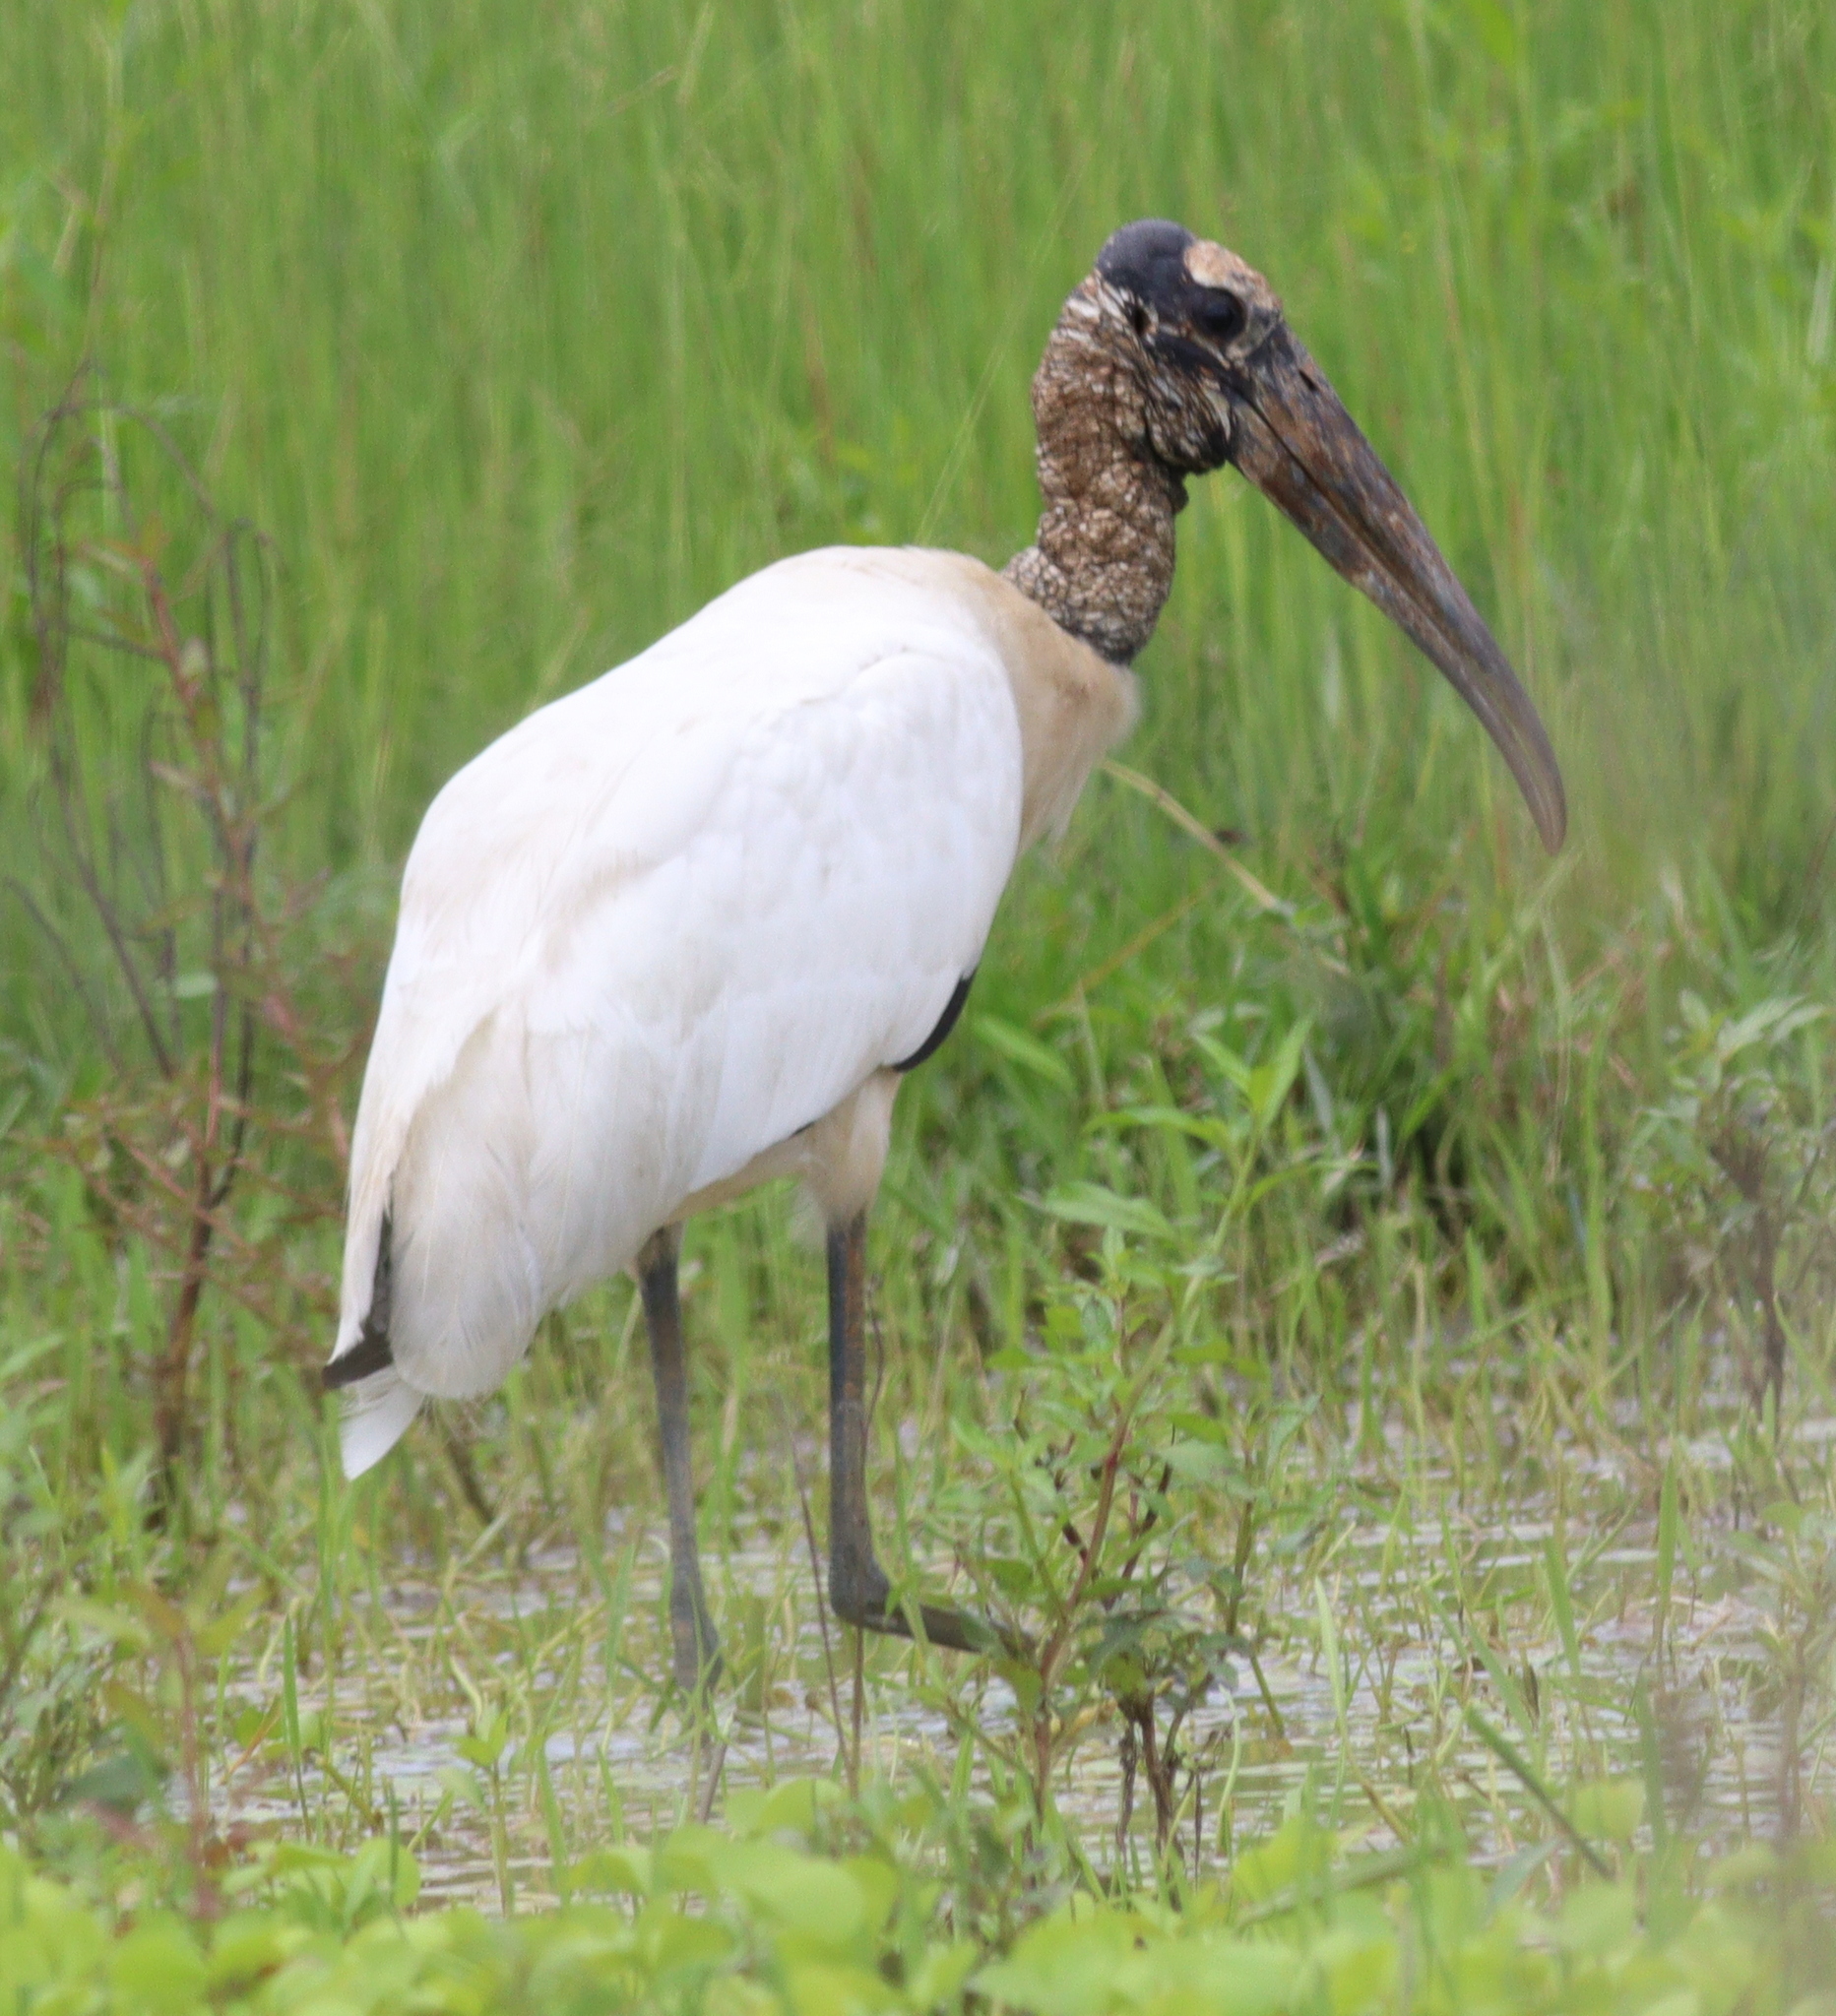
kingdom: Animalia
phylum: Chordata
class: Aves
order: Ciconiiformes
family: Ciconiidae
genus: Mycteria
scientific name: Mycteria americana
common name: Wood stork
